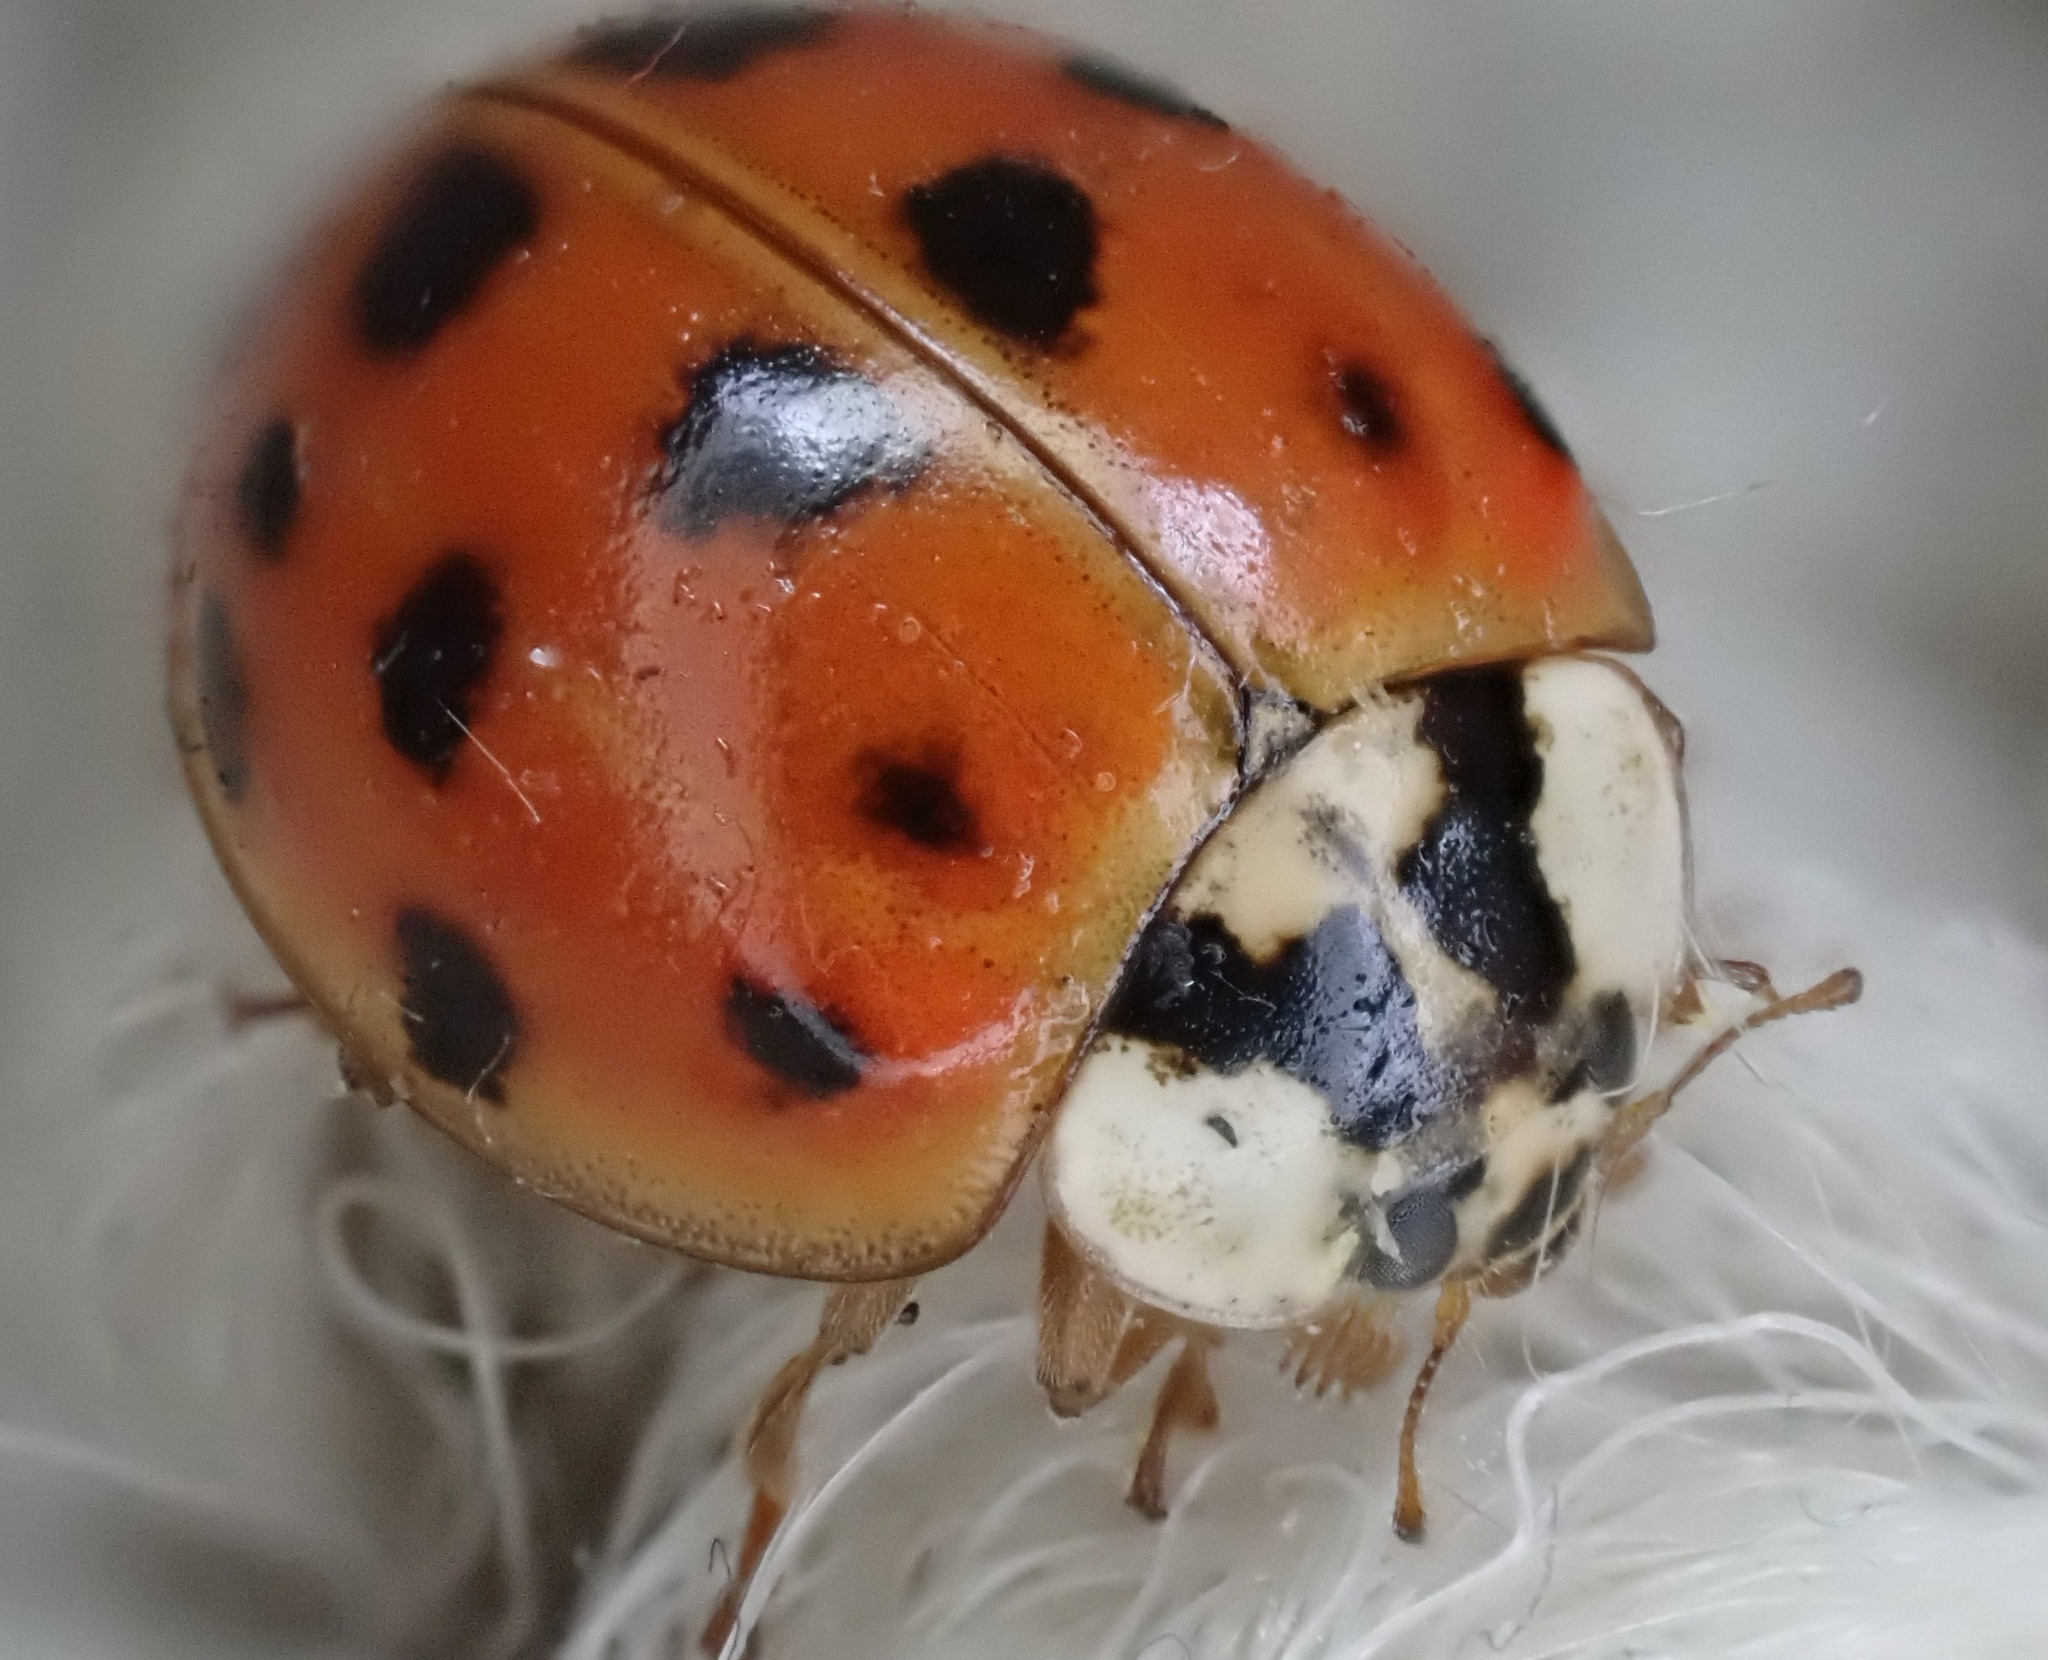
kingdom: Animalia
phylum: Arthropoda
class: Insecta
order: Coleoptera
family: Coccinellidae
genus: Harmonia
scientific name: Harmonia axyridis
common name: Harlequin ladybird
